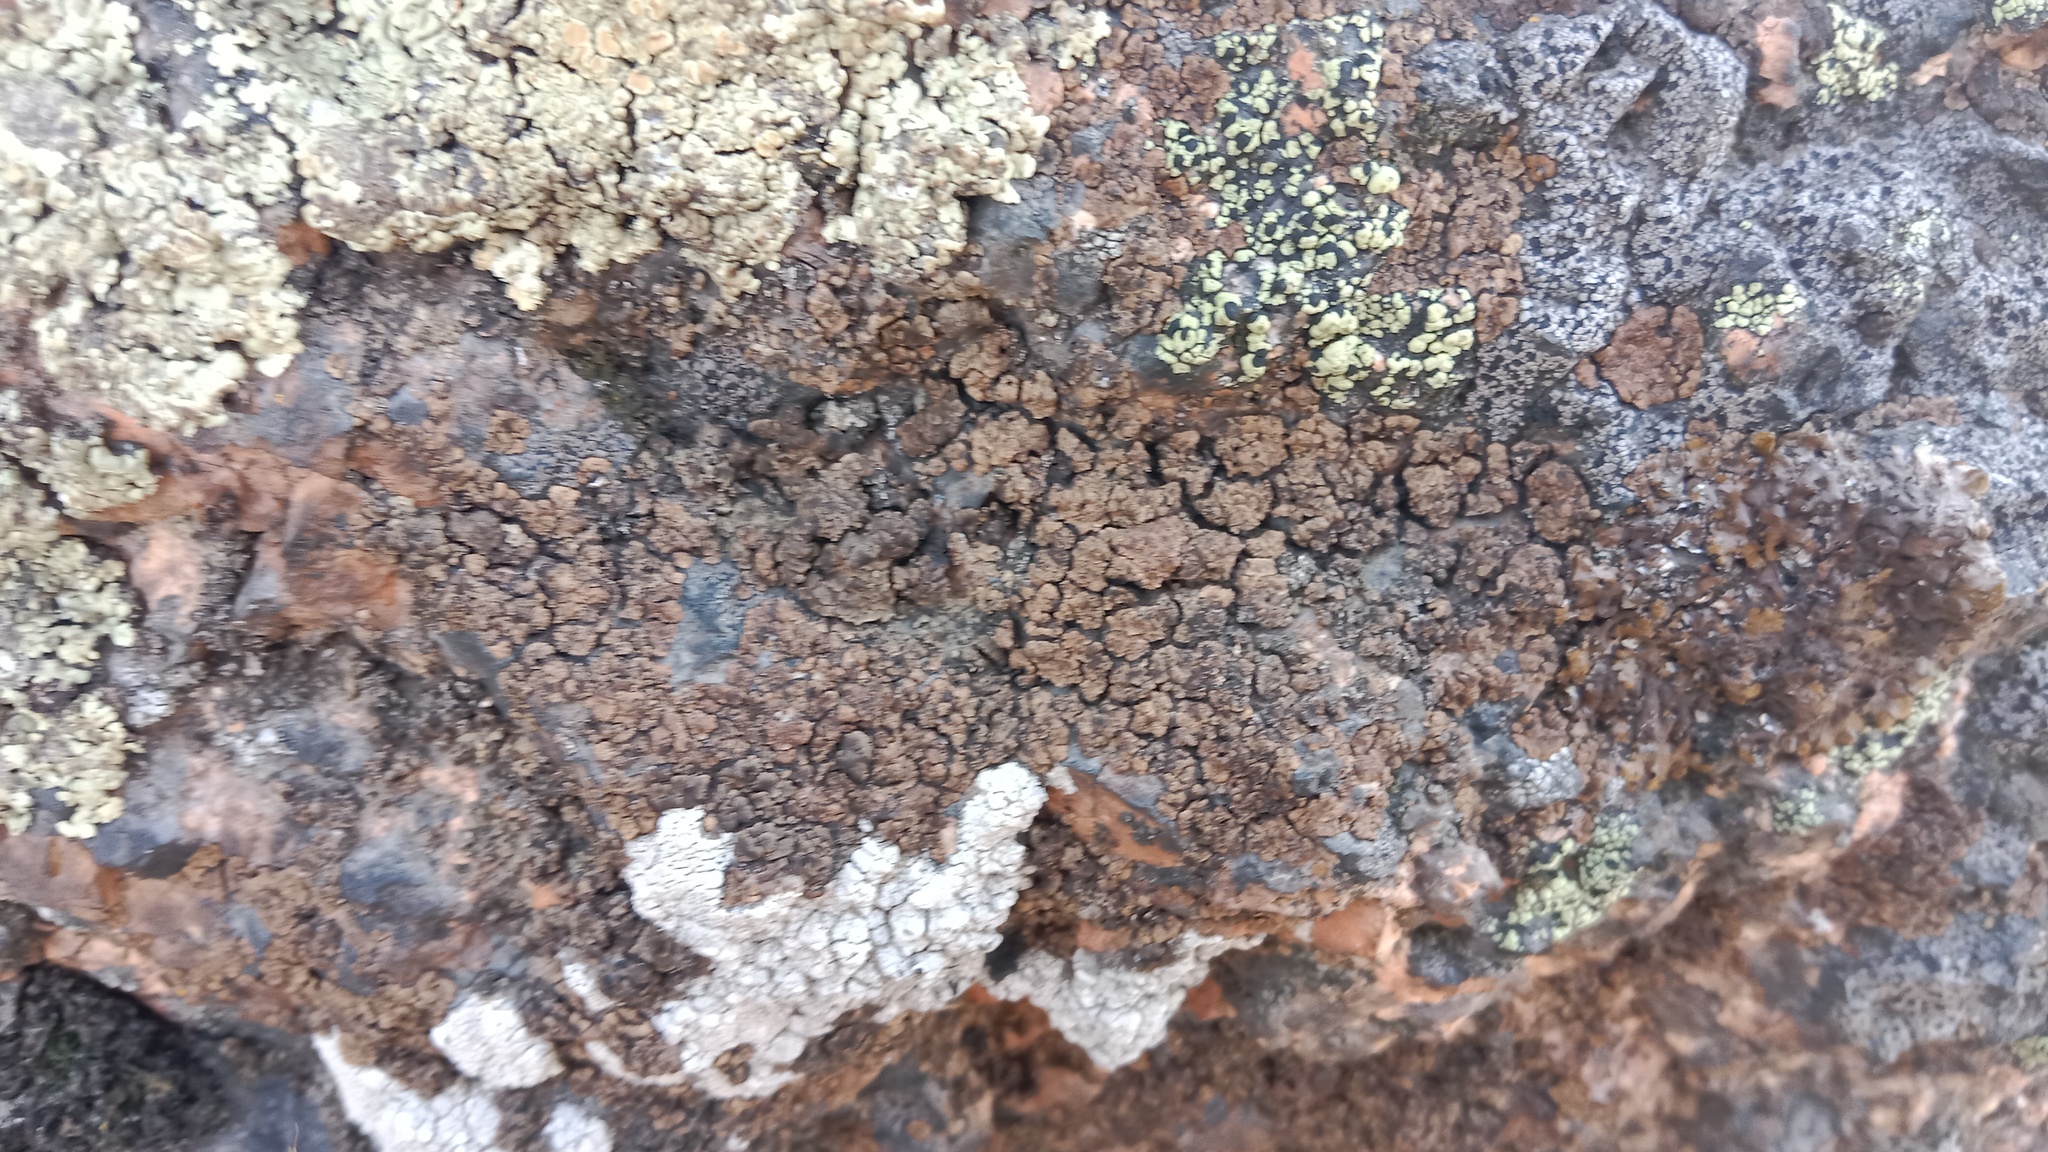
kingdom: Fungi
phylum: Ascomycota
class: Lecanoromycetes
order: Acarosporales
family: Acarosporaceae
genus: Acarospora
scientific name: Acarospora fuscata
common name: Brown cobblestone lichen
